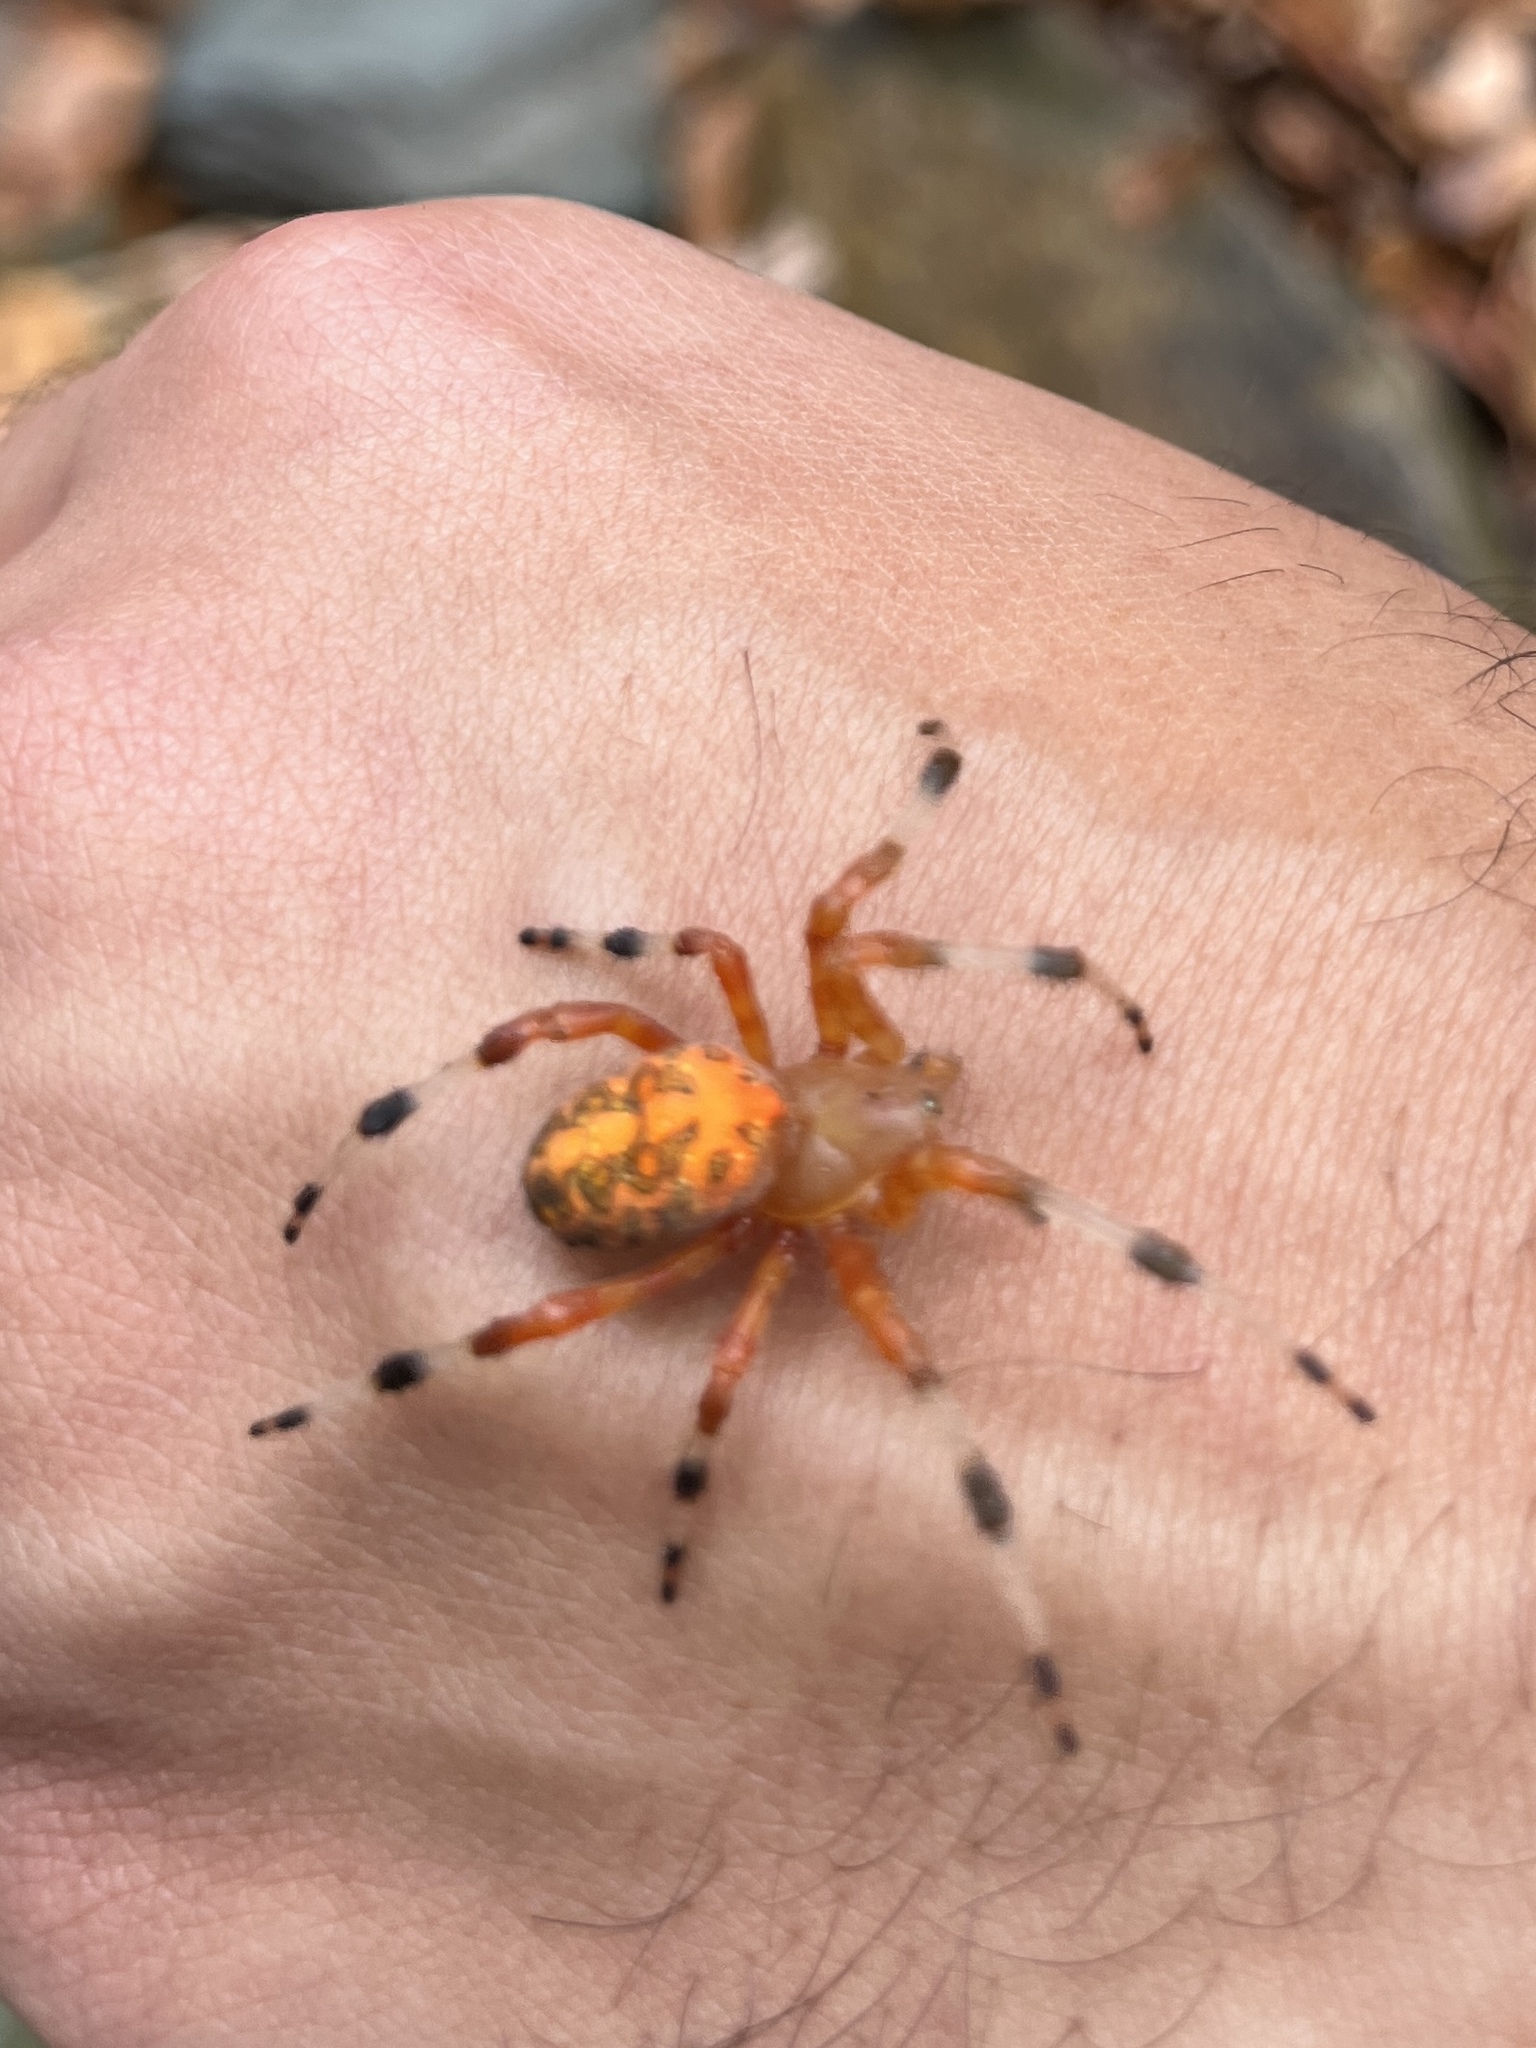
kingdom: Animalia
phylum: Arthropoda
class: Arachnida
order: Araneae
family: Araneidae
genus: Araneus
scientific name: Araneus marmoreus
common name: Marbled orbweaver
